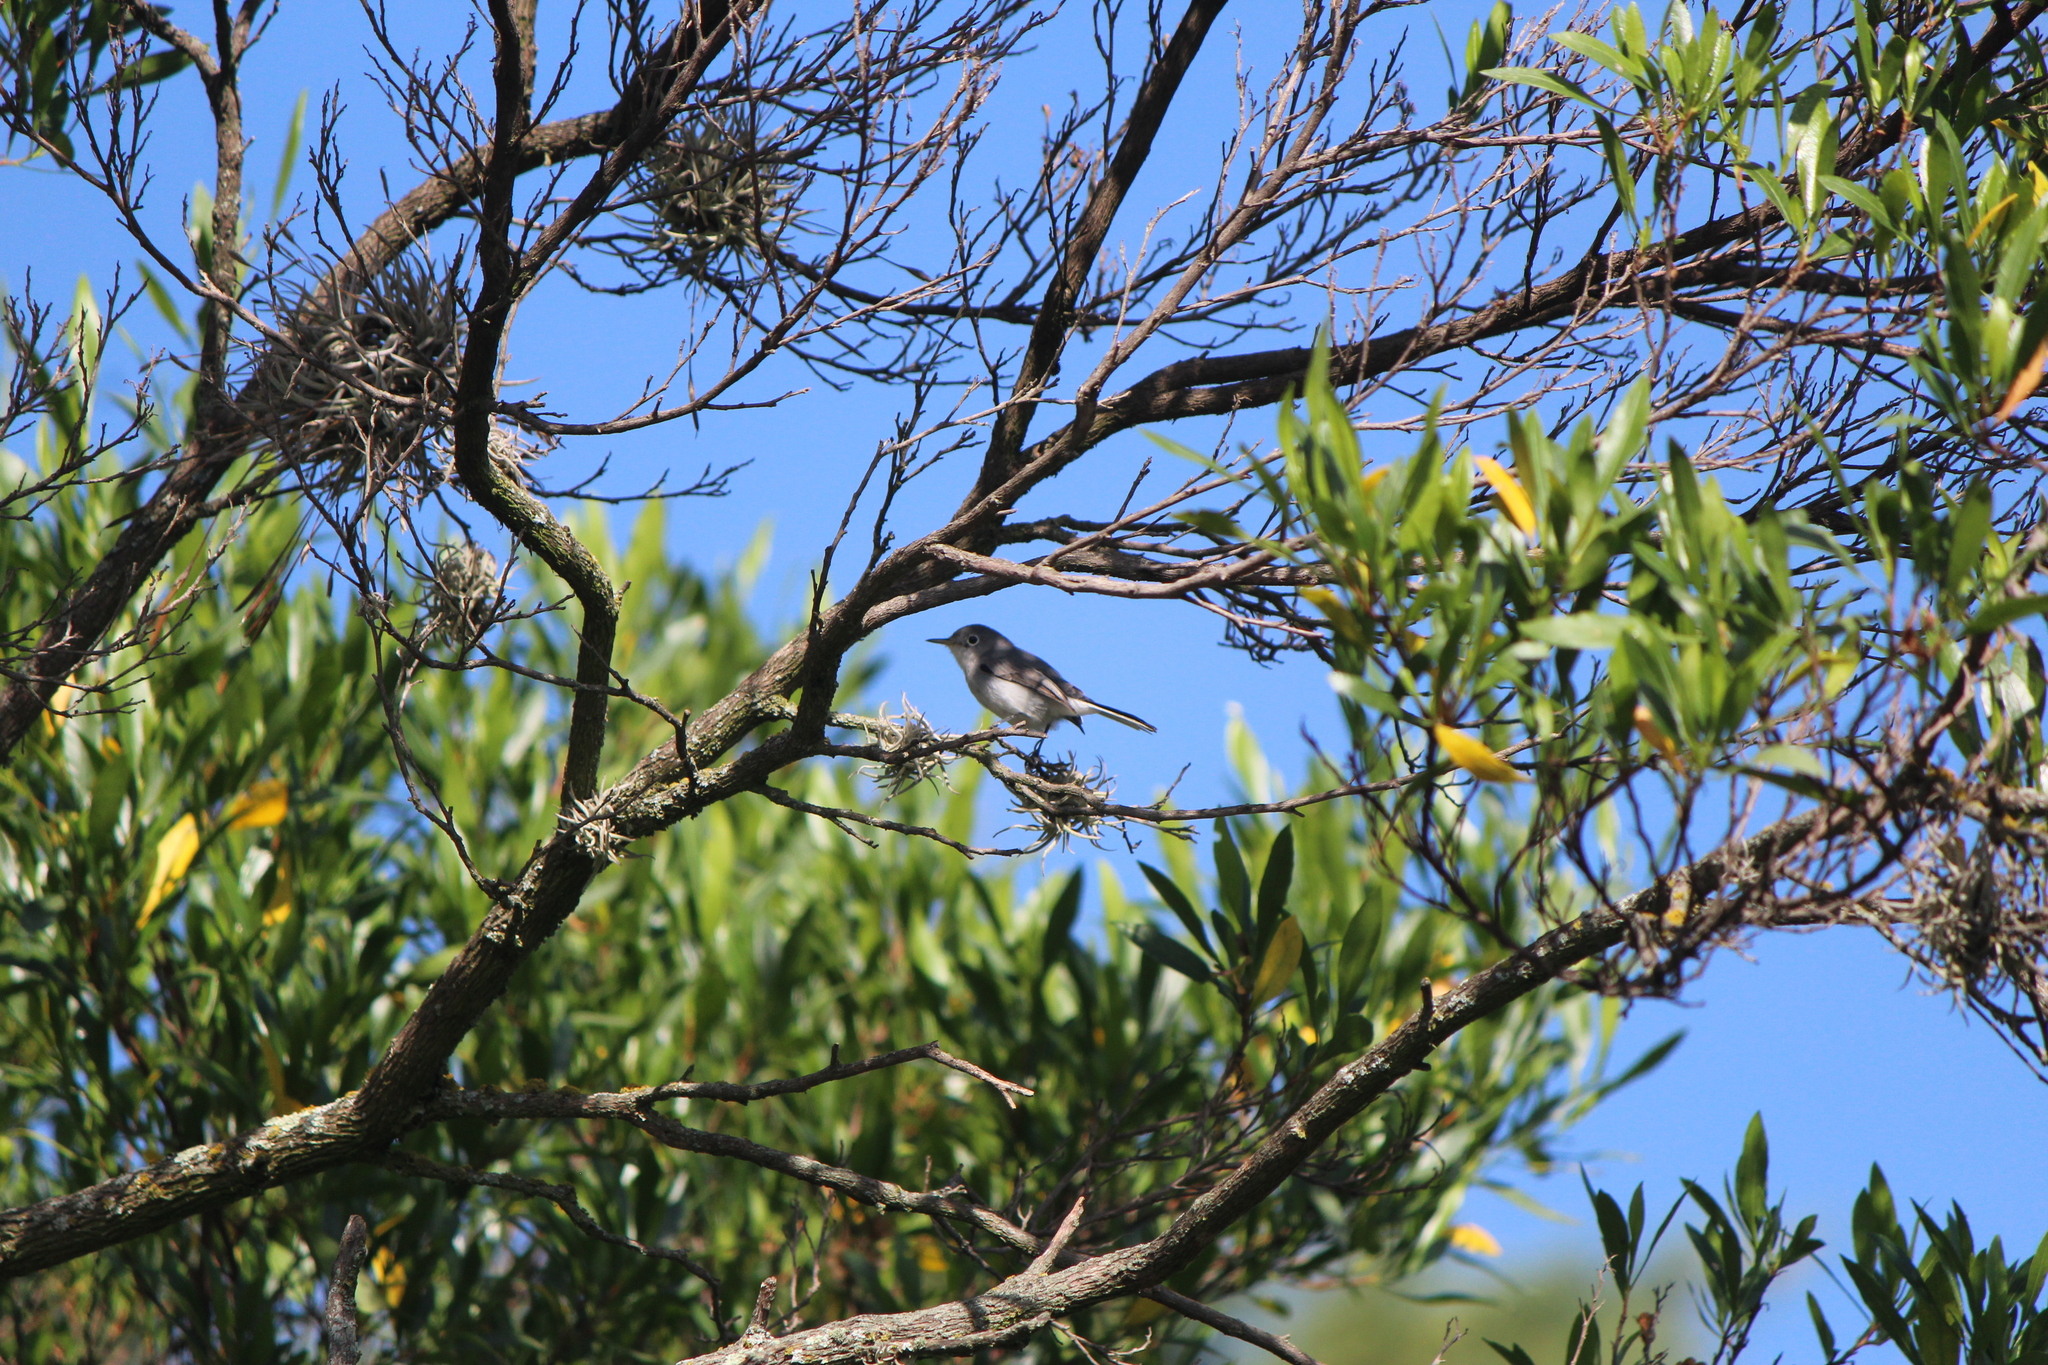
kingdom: Animalia
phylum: Chordata
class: Aves
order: Passeriformes
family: Polioptilidae
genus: Polioptila
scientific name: Polioptila caerulea
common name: Blue-gray gnatcatcher
